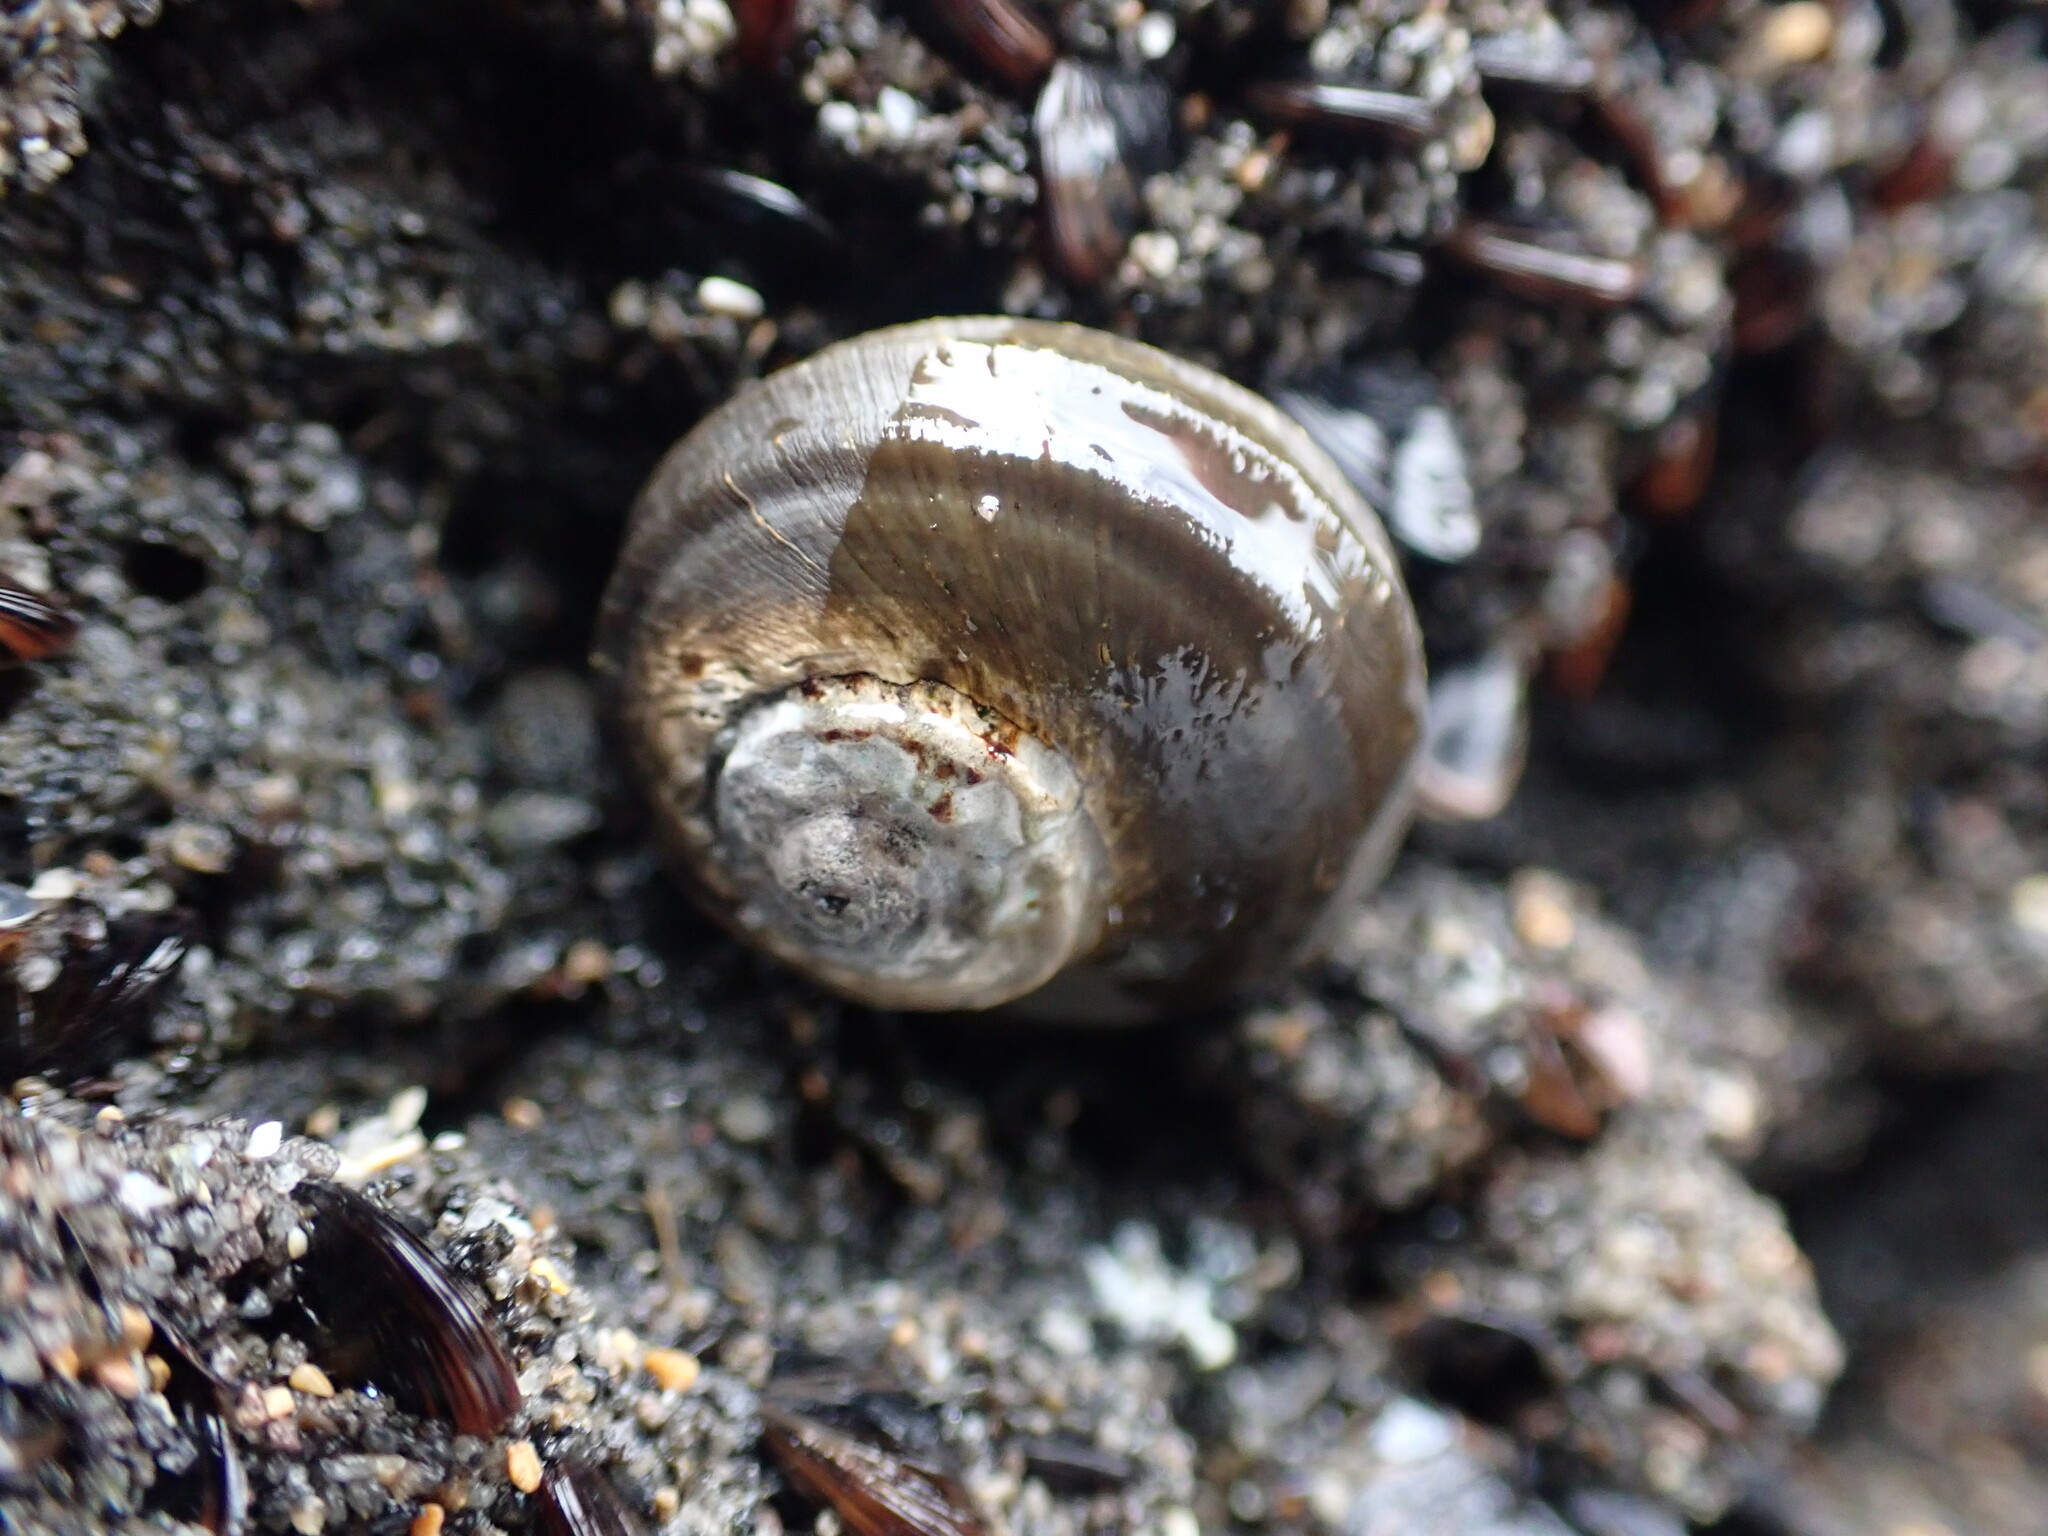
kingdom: Animalia
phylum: Mollusca
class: Gastropoda
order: Trochida
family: Turbinidae
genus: Lunella
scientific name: Lunella smaragda
